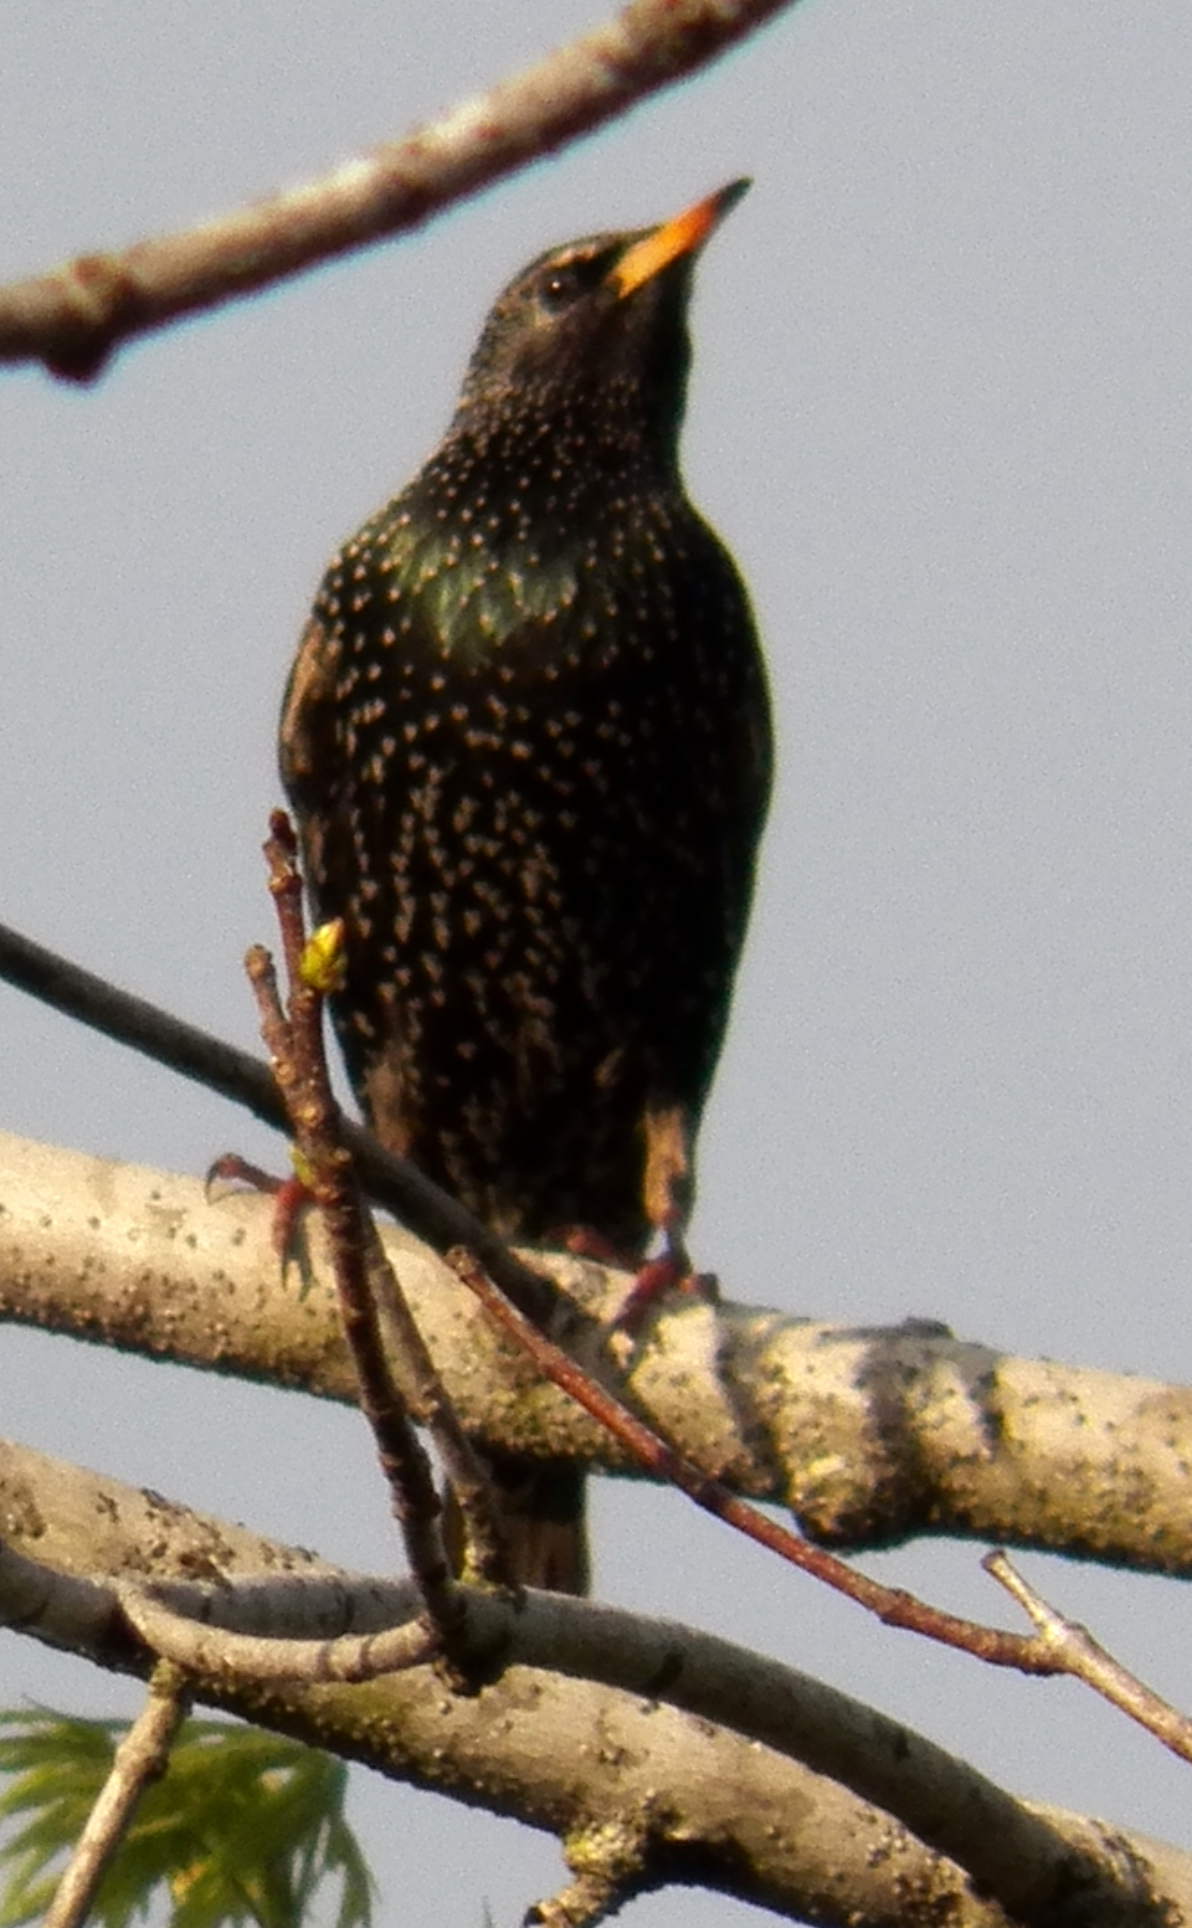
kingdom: Animalia
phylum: Chordata
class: Aves
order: Passeriformes
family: Sturnidae
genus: Sturnus
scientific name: Sturnus vulgaris
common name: Common starling
